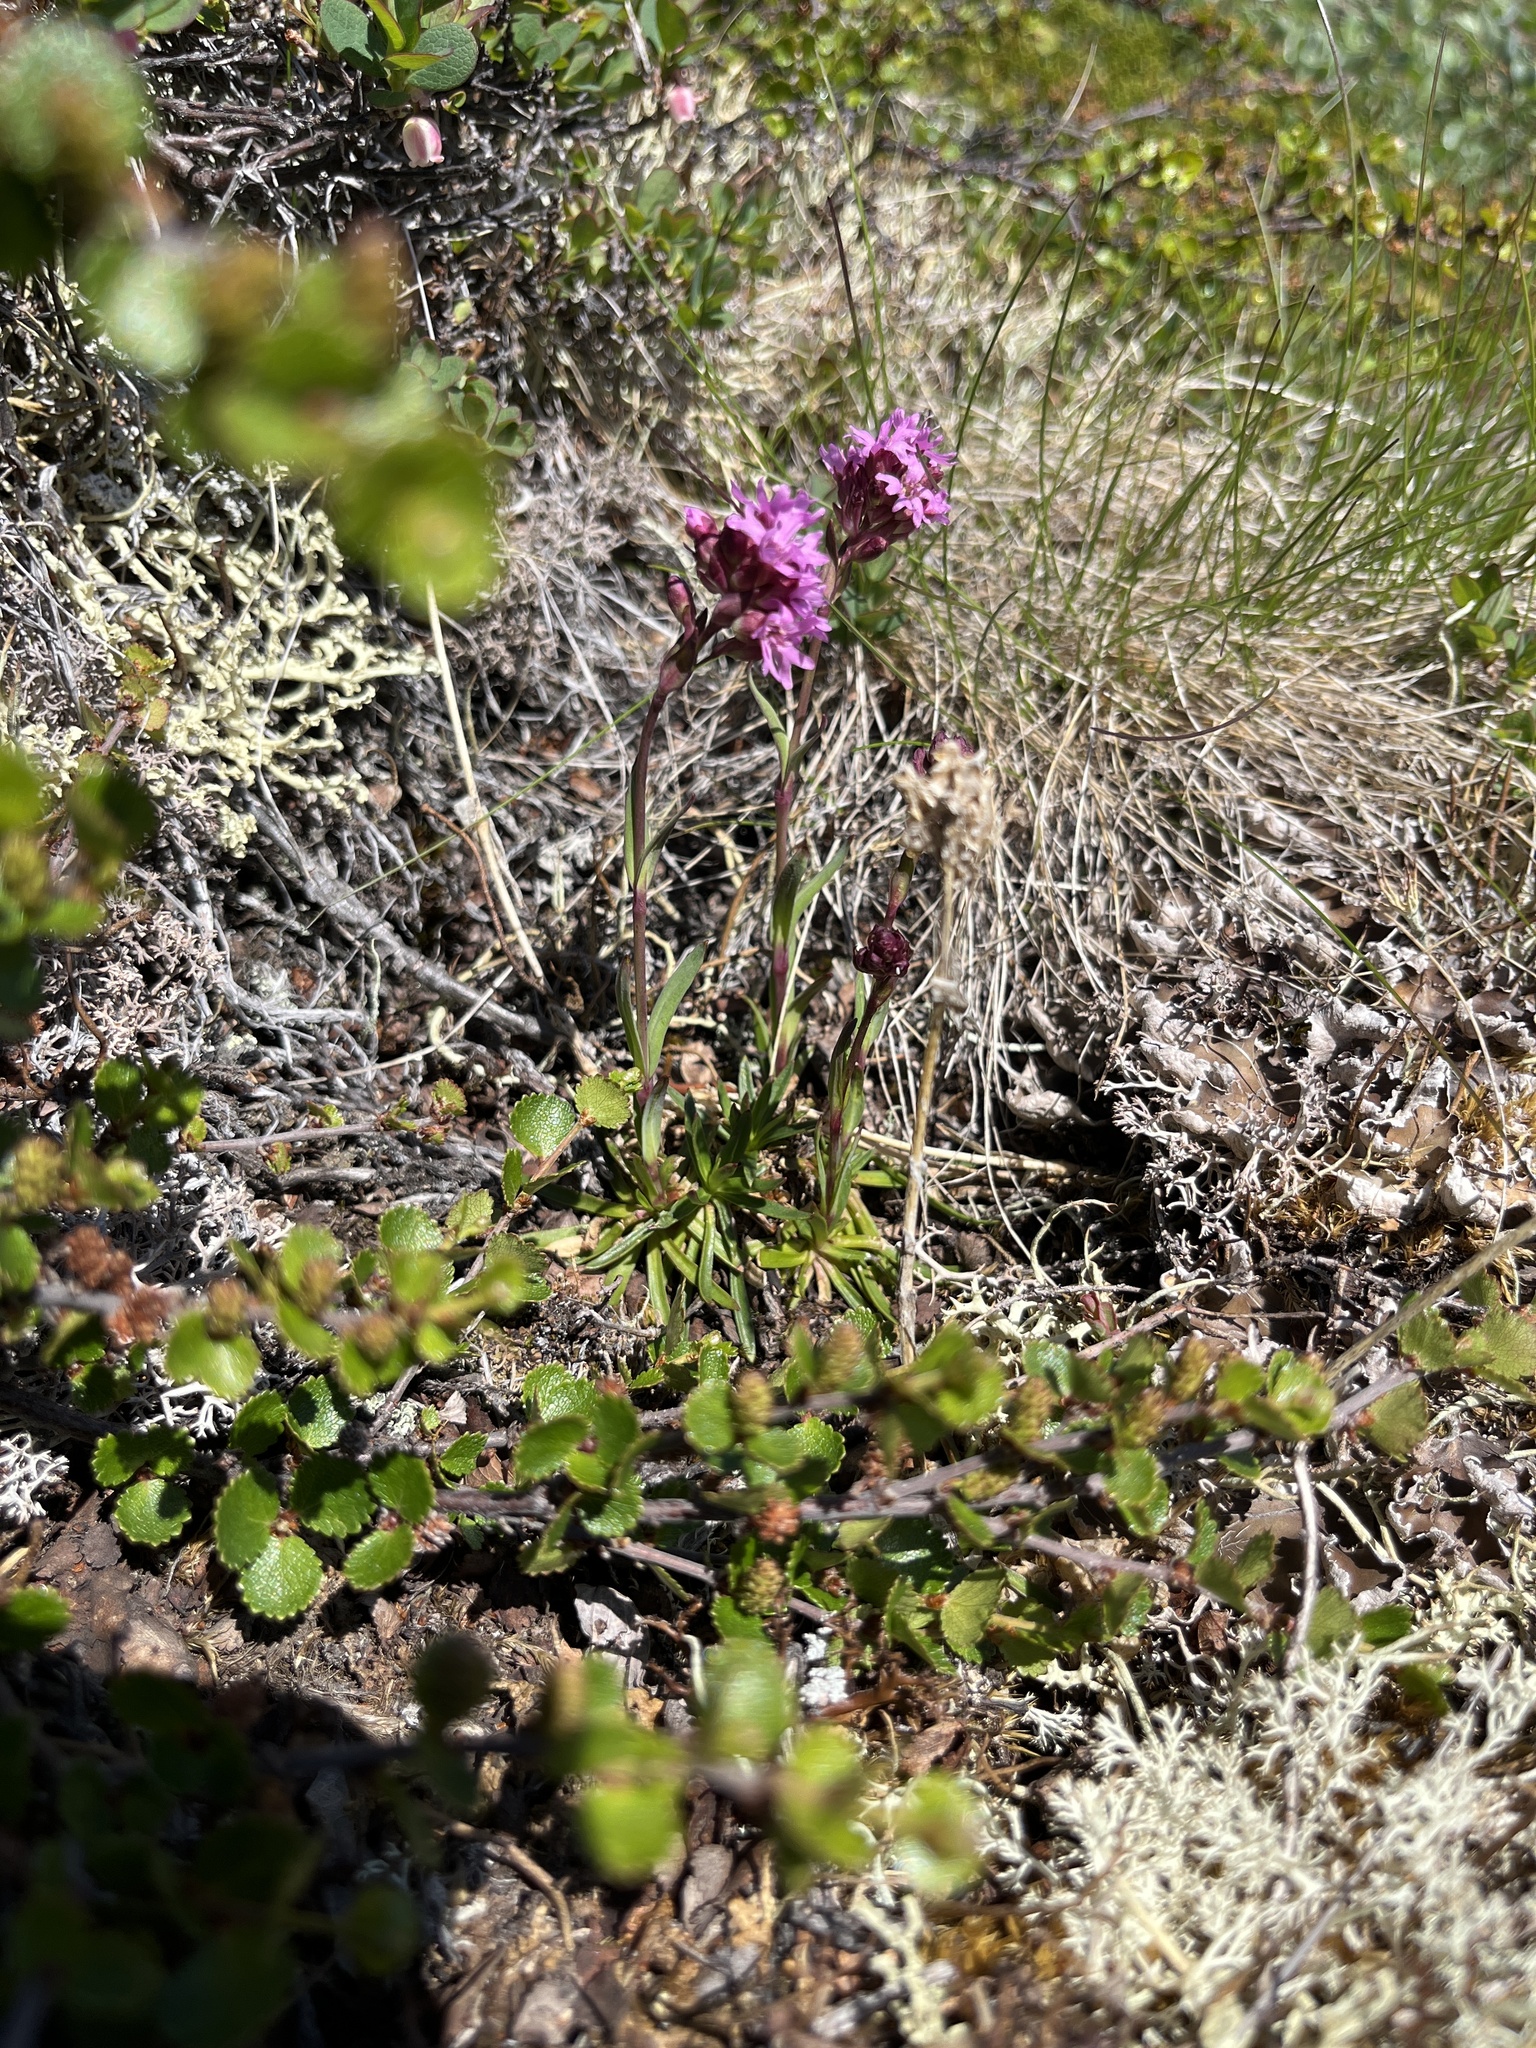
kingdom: Plantae
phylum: Tracheophyta
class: Magnoliopsida
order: Caryophyllales
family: Caryophyllaceae
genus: Viscaria
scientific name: Viscaria alpina
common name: Alpine campion
